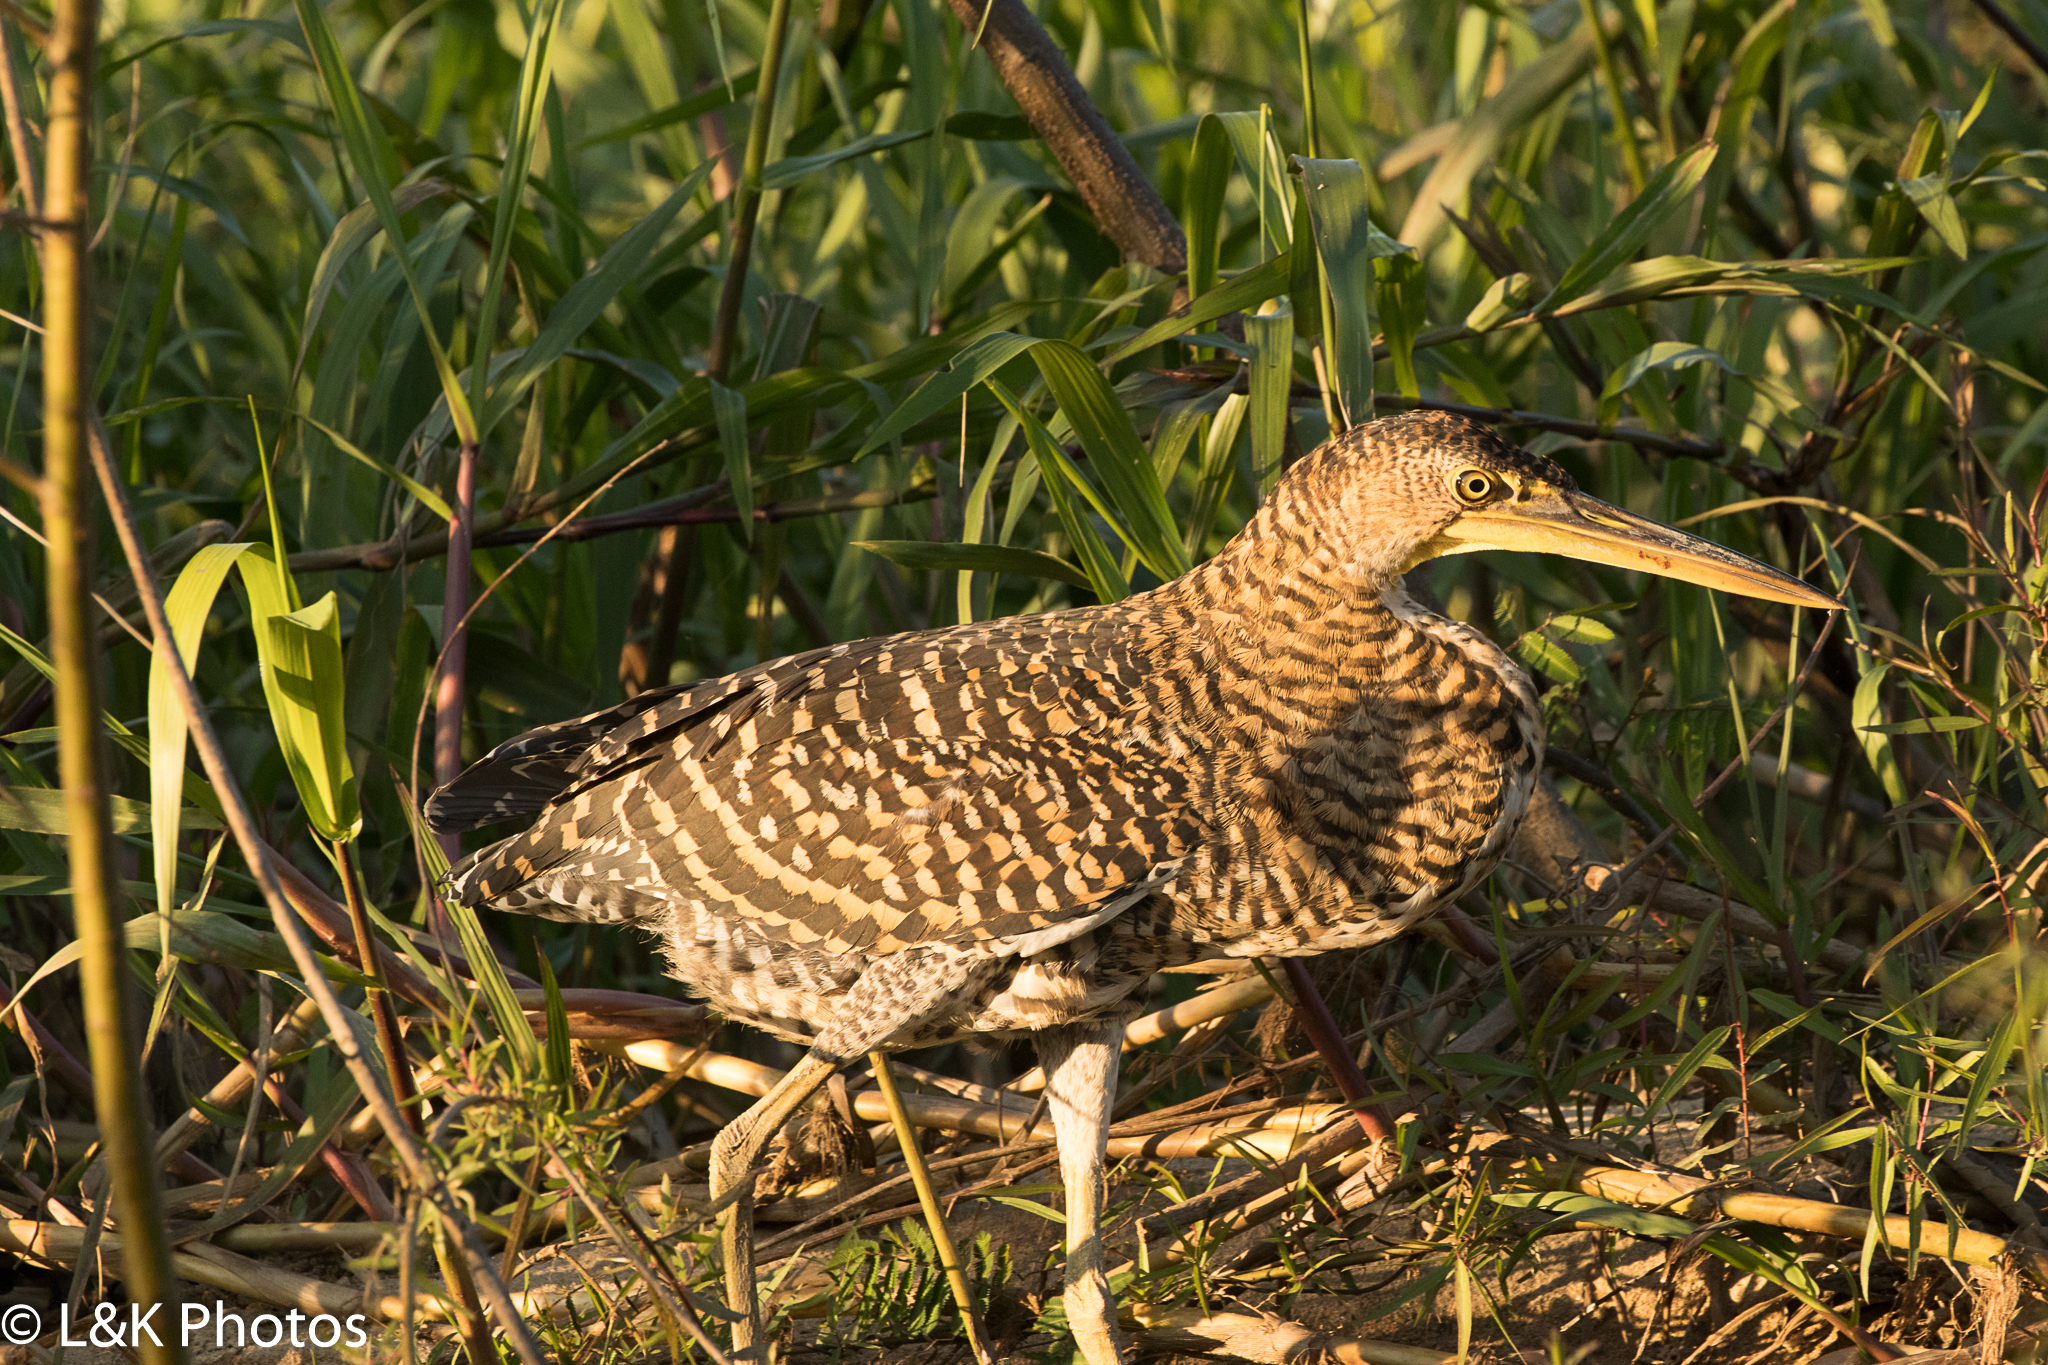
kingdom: Animalia
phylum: Chordata
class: Aves
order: Pelecaniformes
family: Ardeidae
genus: Tigrisoma
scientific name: Tigrisoma mexicanum
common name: Bare-throated tiger-heron
